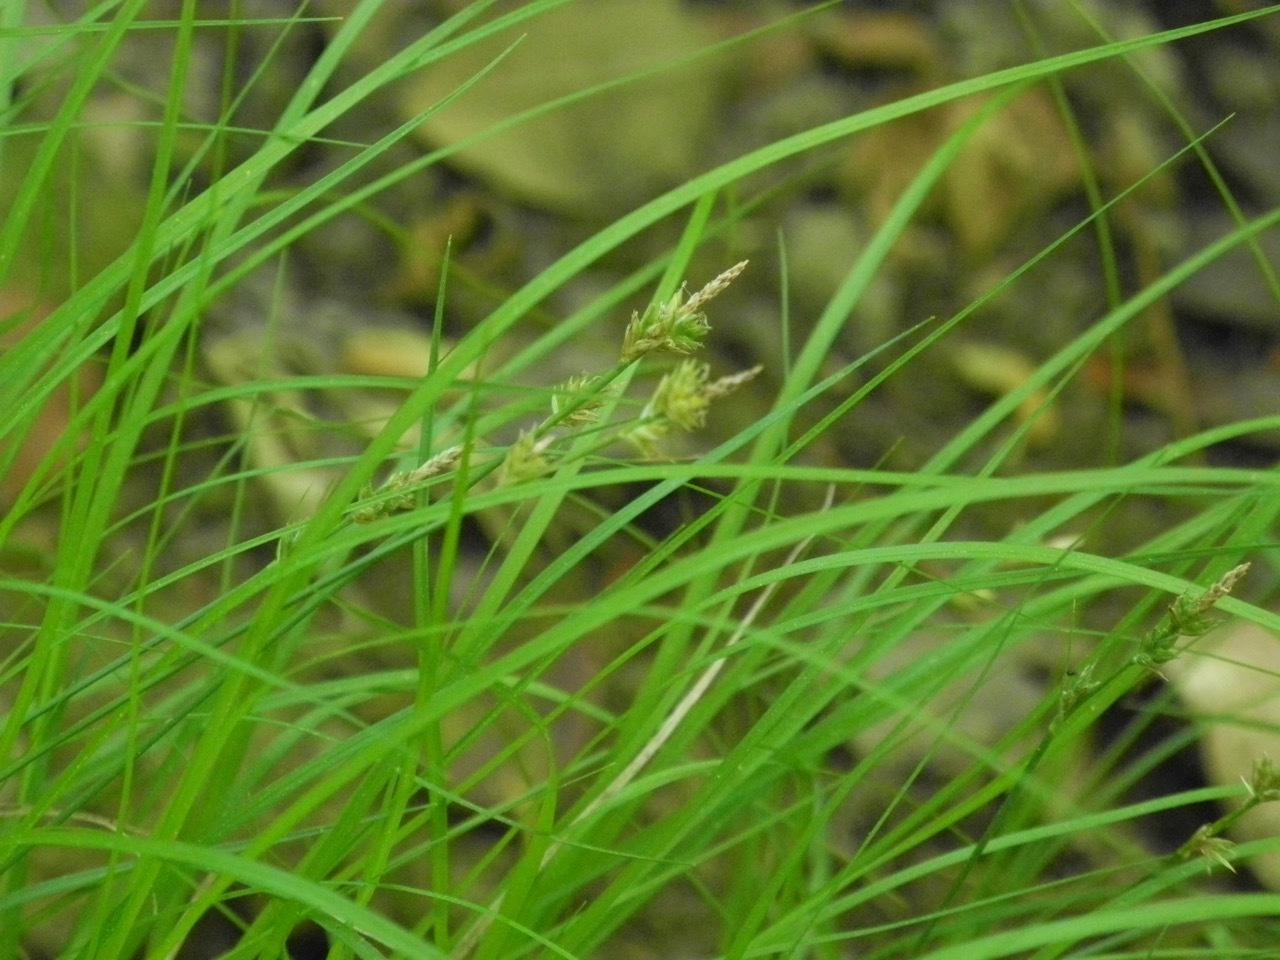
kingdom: Plantae
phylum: Tracheophyta
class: Liliopsida
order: Poales
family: Cyperaceae
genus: Carex
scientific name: Carex albicans
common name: Bellow-beaked sedge
